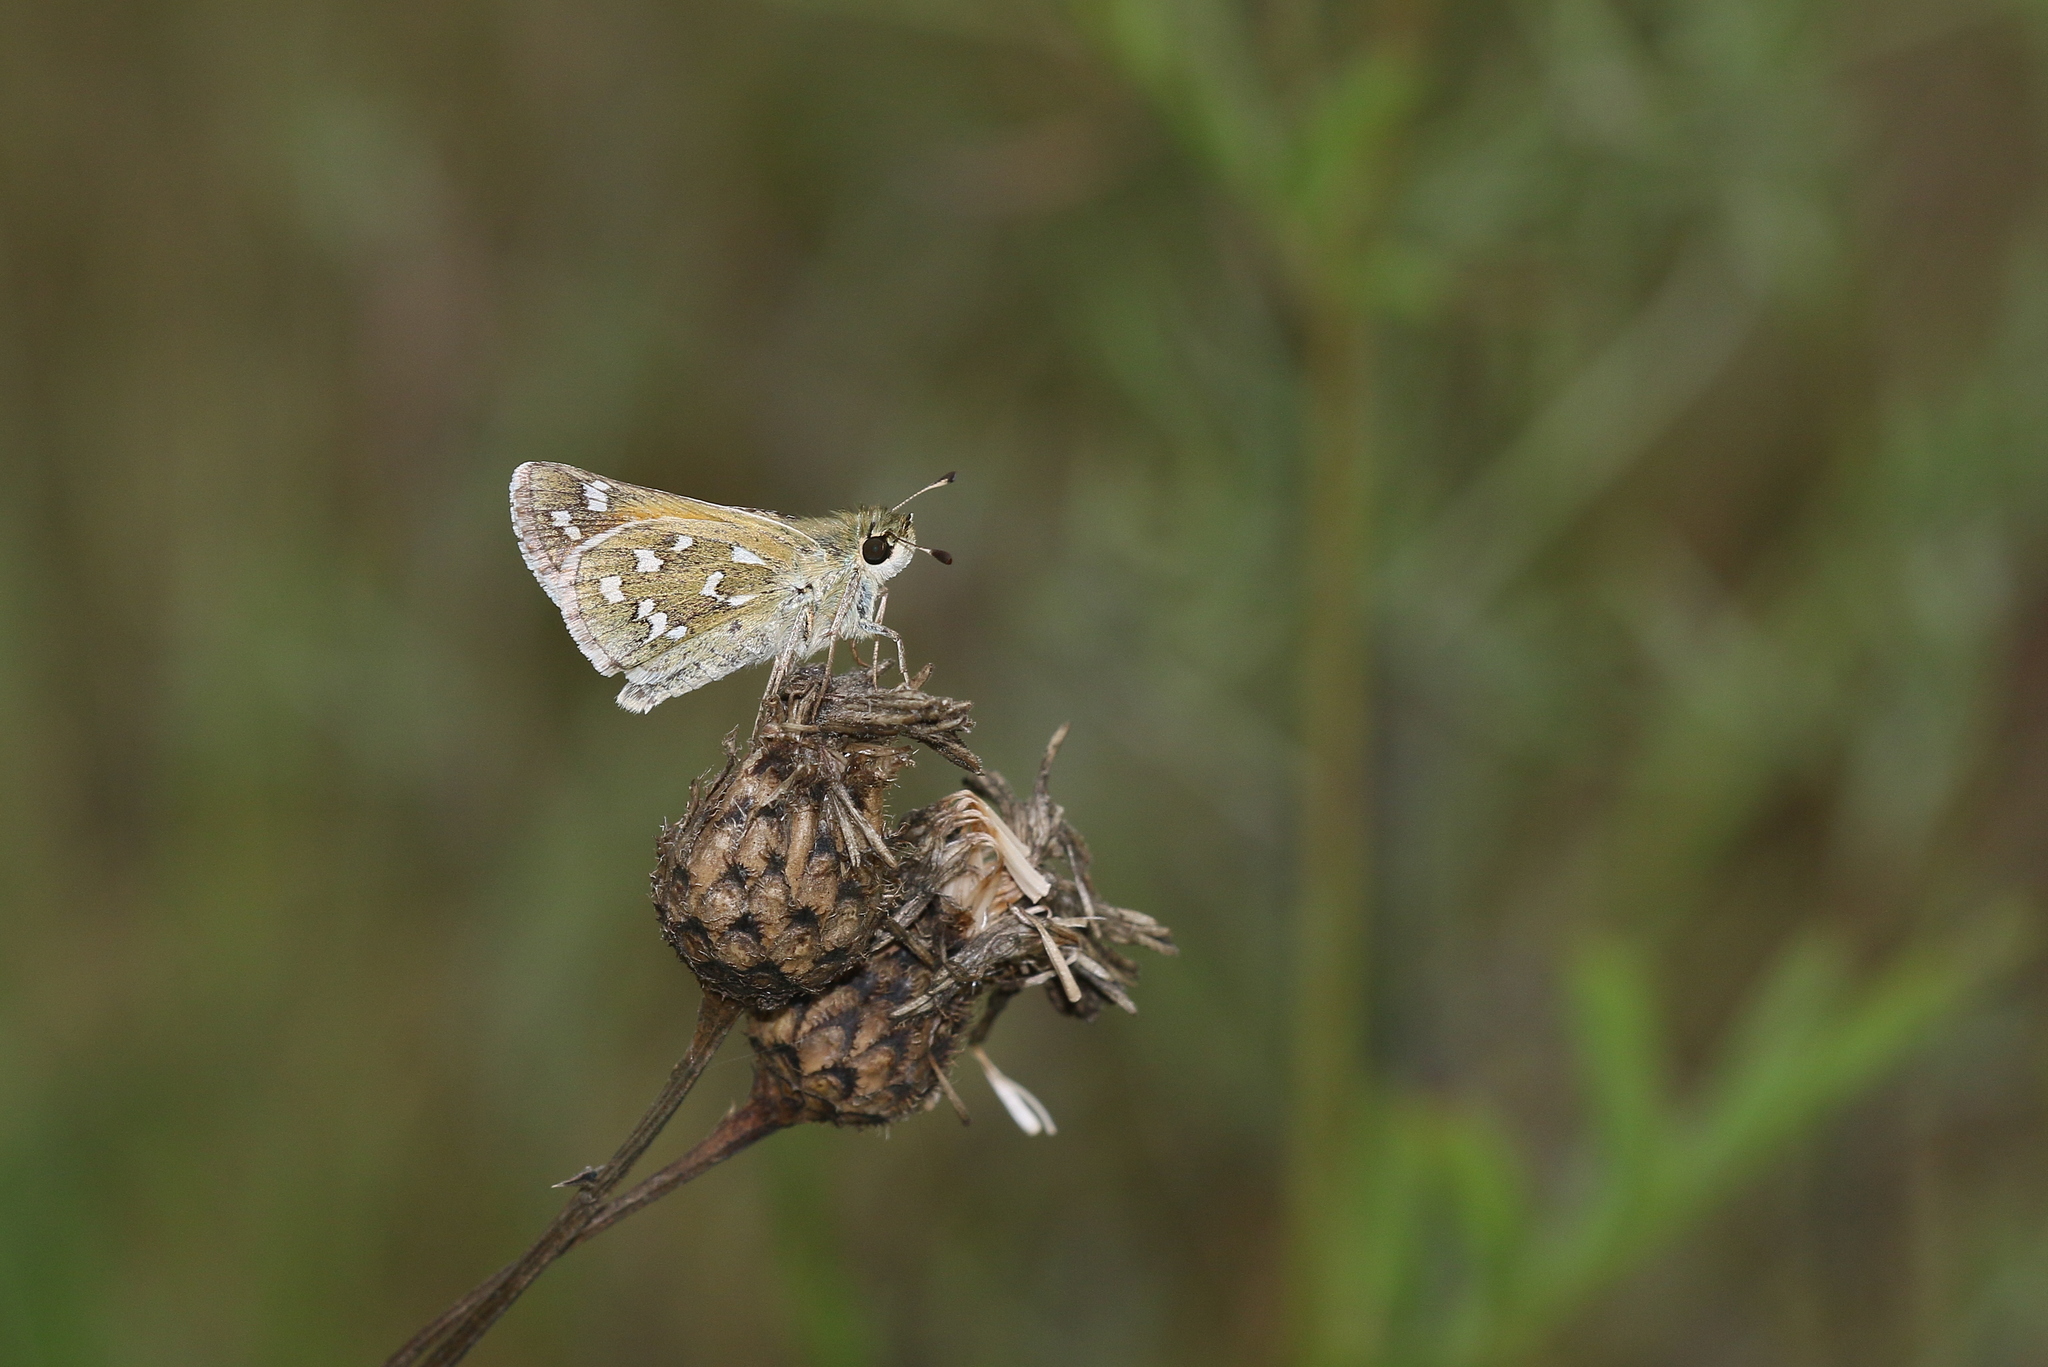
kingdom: Animalia
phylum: Arthropoda
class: Insecta
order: Lepidoptera
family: Hesperiidae
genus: Hesperia
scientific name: Hesperia comma
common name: Common branded skipper
